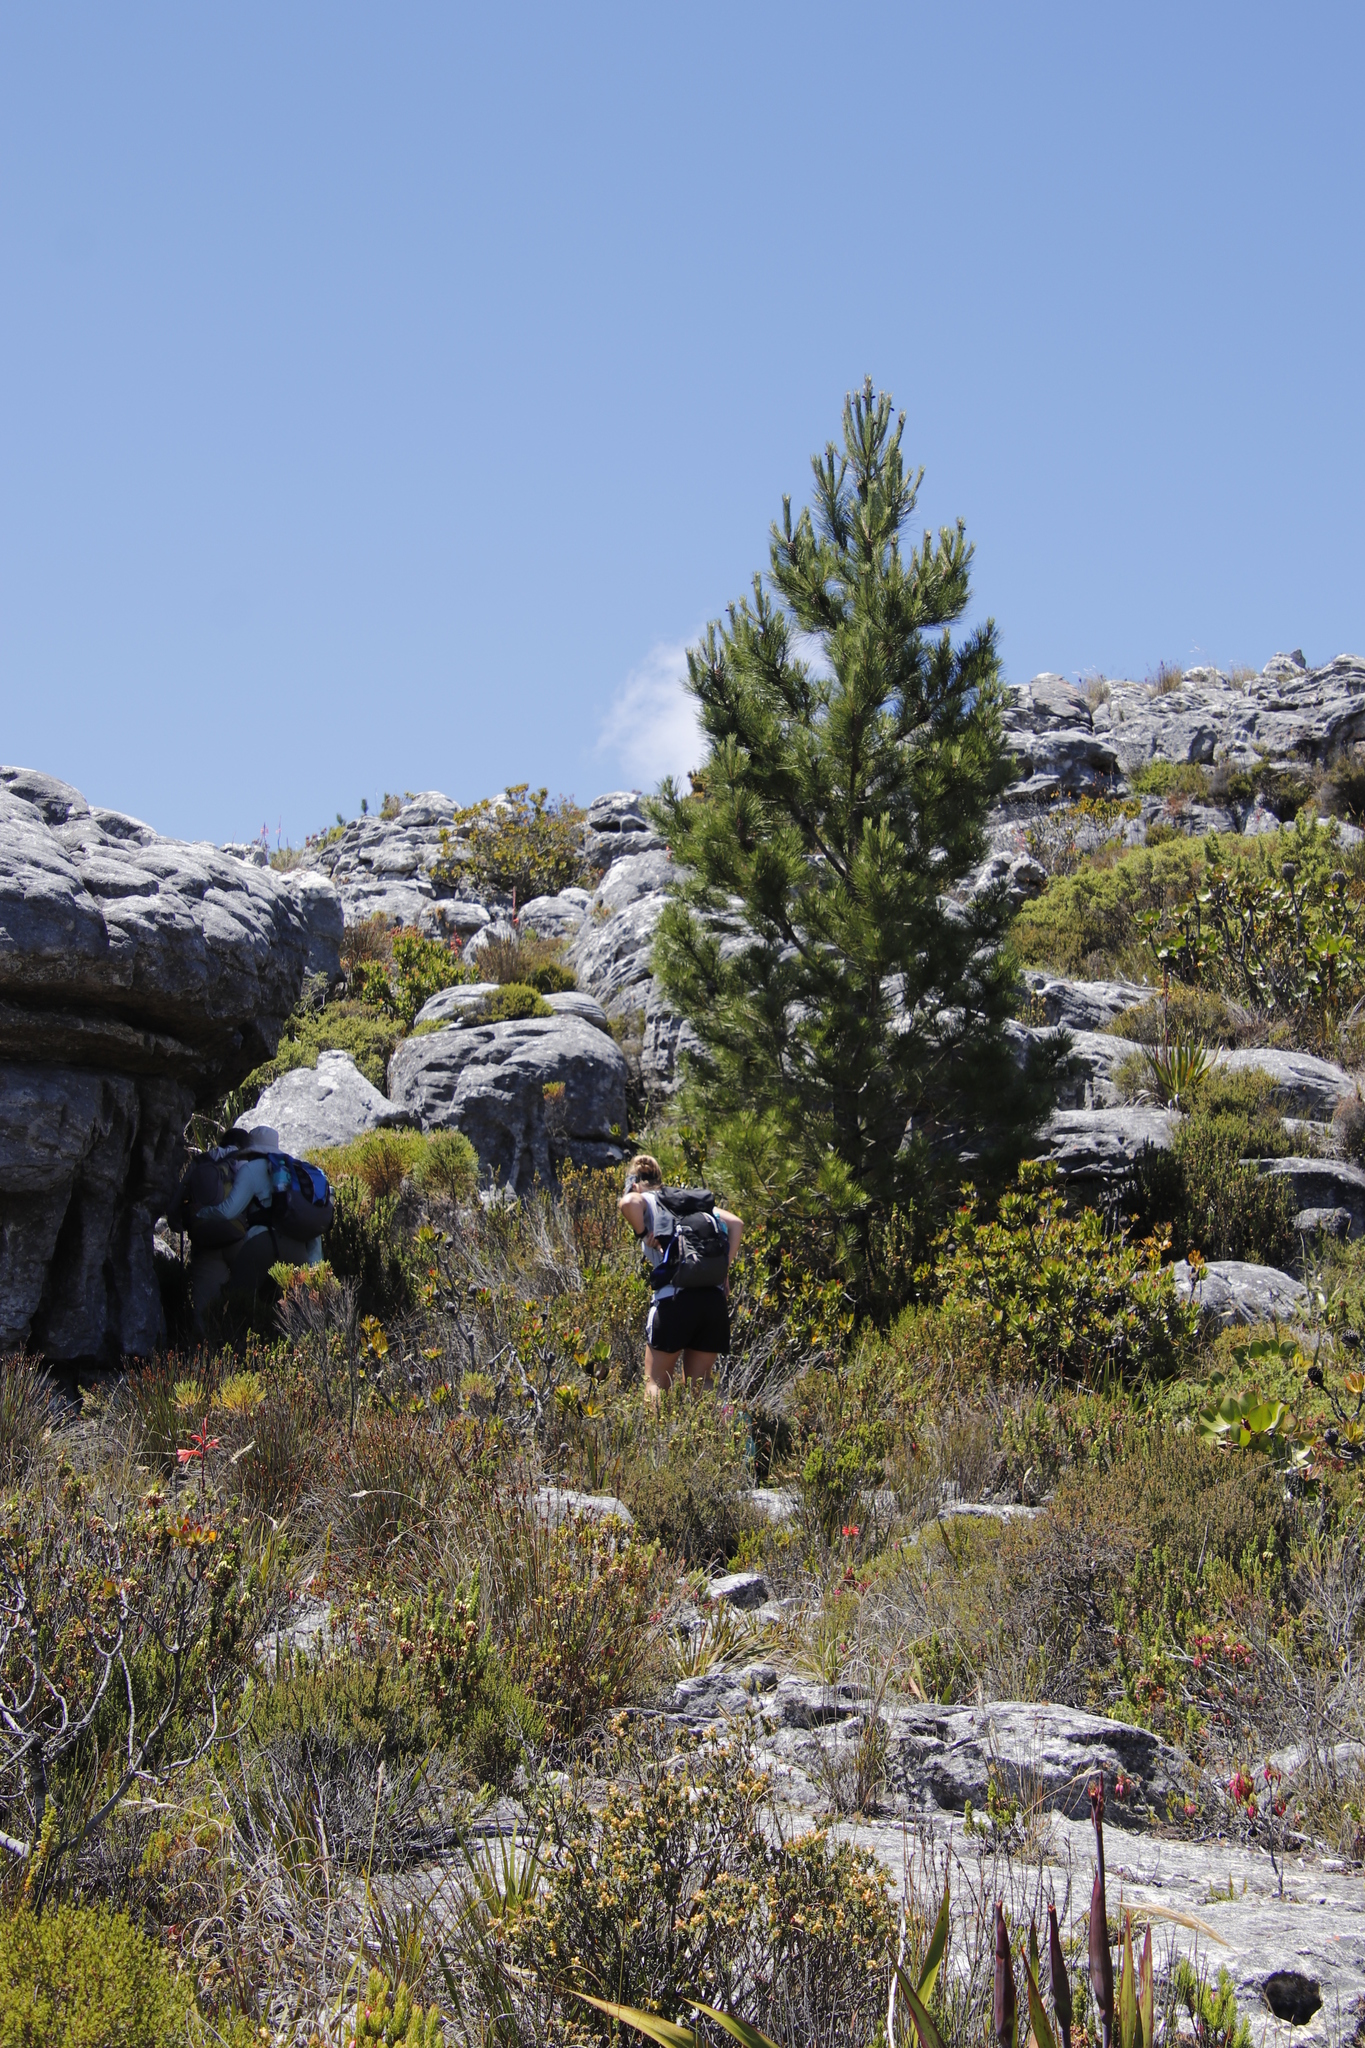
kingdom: Plantae
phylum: Tracheophyta
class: Pinopsida
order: Pinales
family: Pinaceae
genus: Pinus
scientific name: Pinus pinaster
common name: Maritime pine
